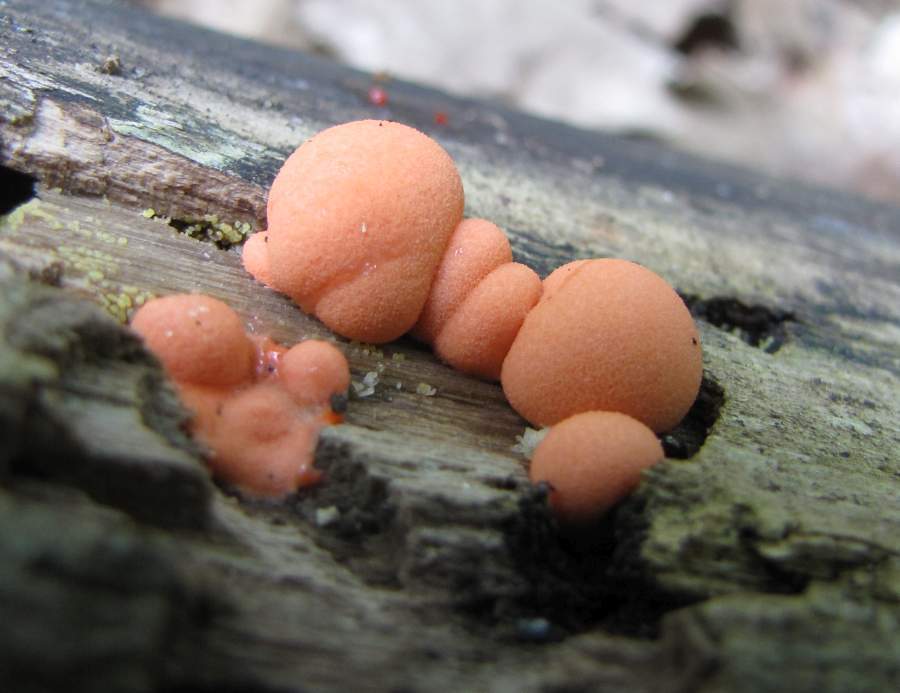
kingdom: Protozoa
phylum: Mycetozoa
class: Myxomycetes
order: Cribrariales
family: Tubiferaceae
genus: Lycogala
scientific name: Lycogala epidendrum
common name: Wolf's milk
